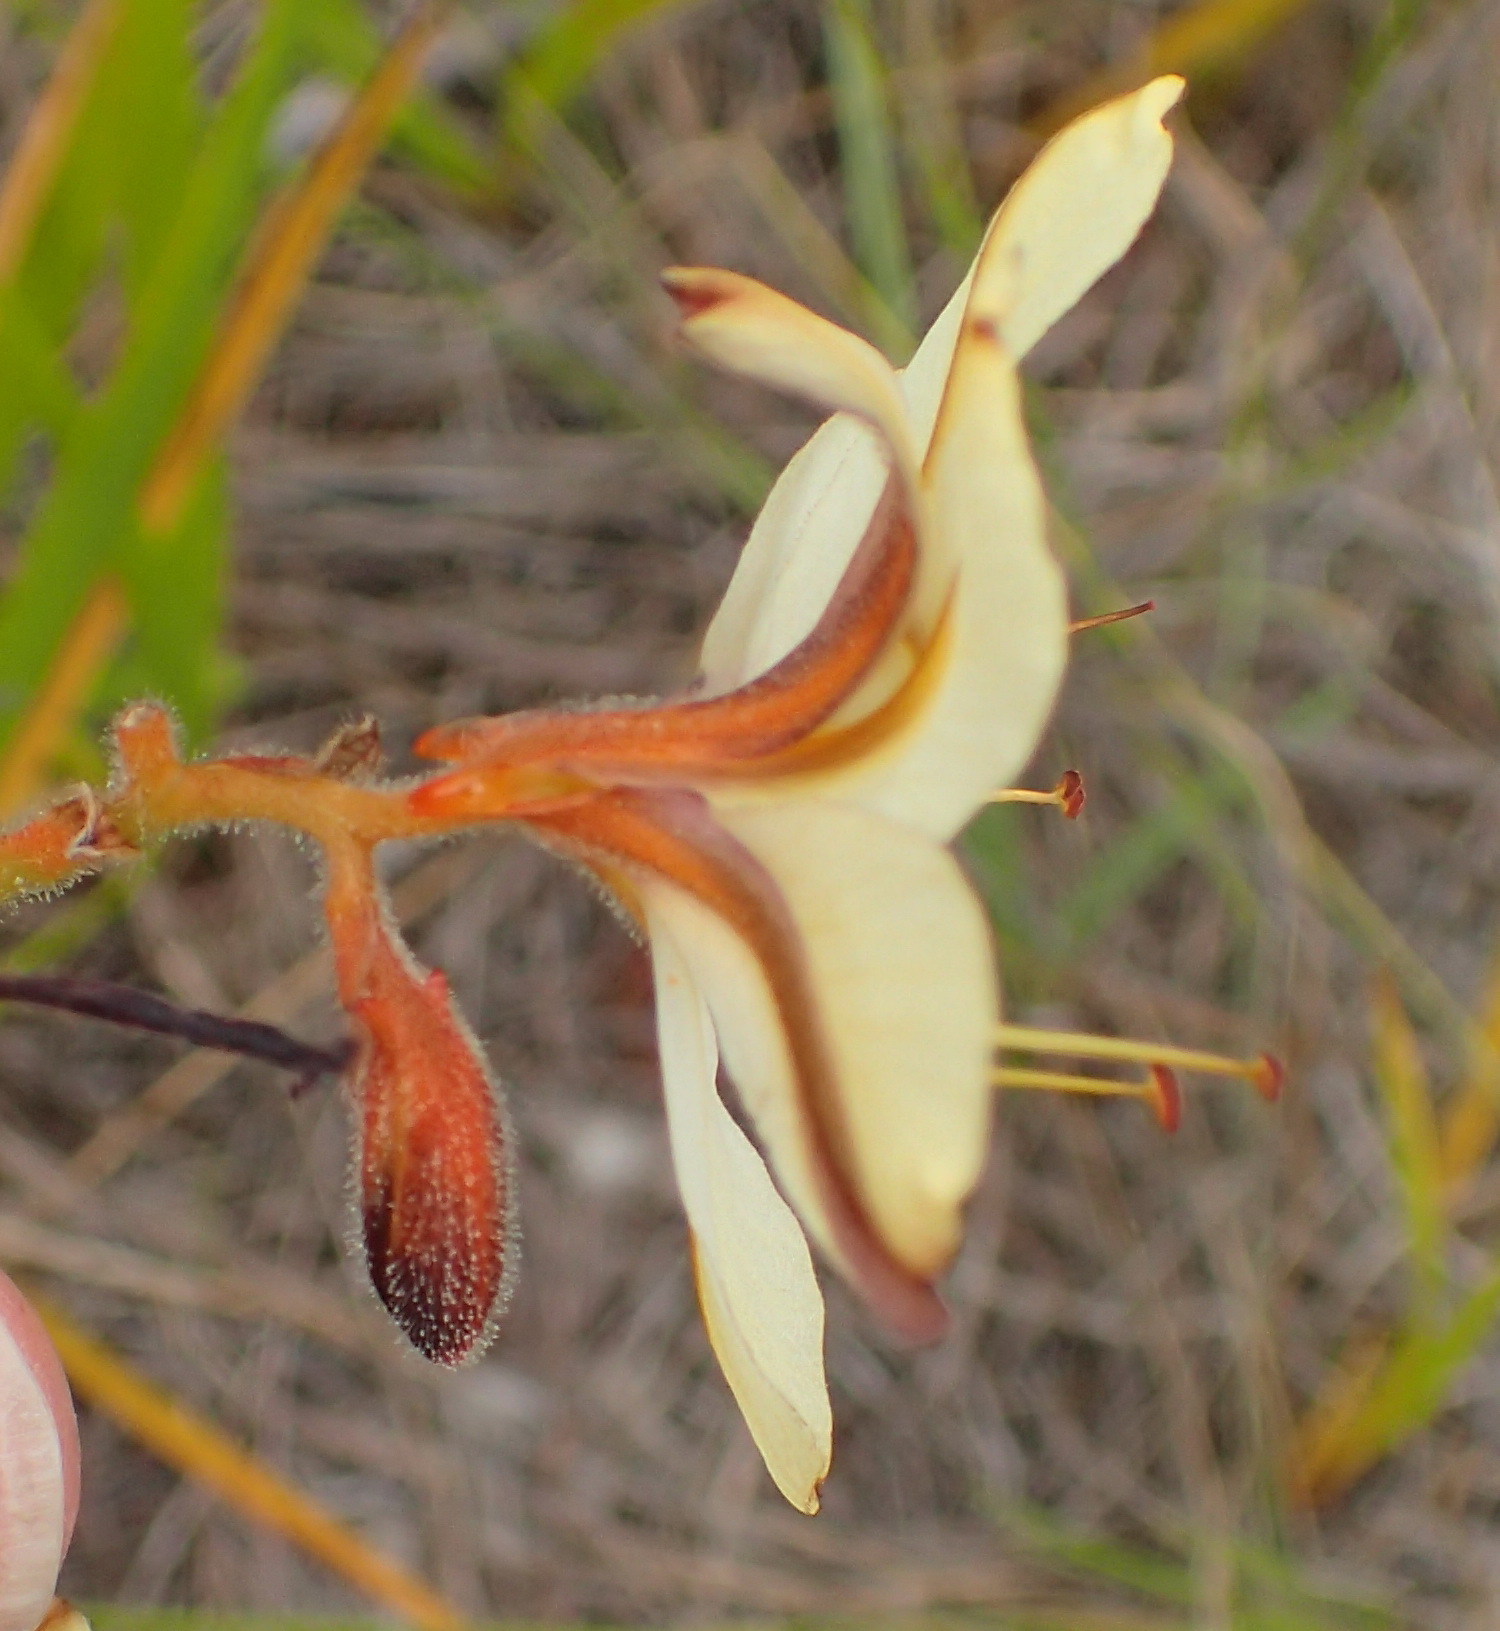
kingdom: Plantae
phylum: Tracheophyta
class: Liliopsida
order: Commelinales
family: Haemodoraceae
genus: Wachendorfia
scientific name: Wachendorfia paniculata
